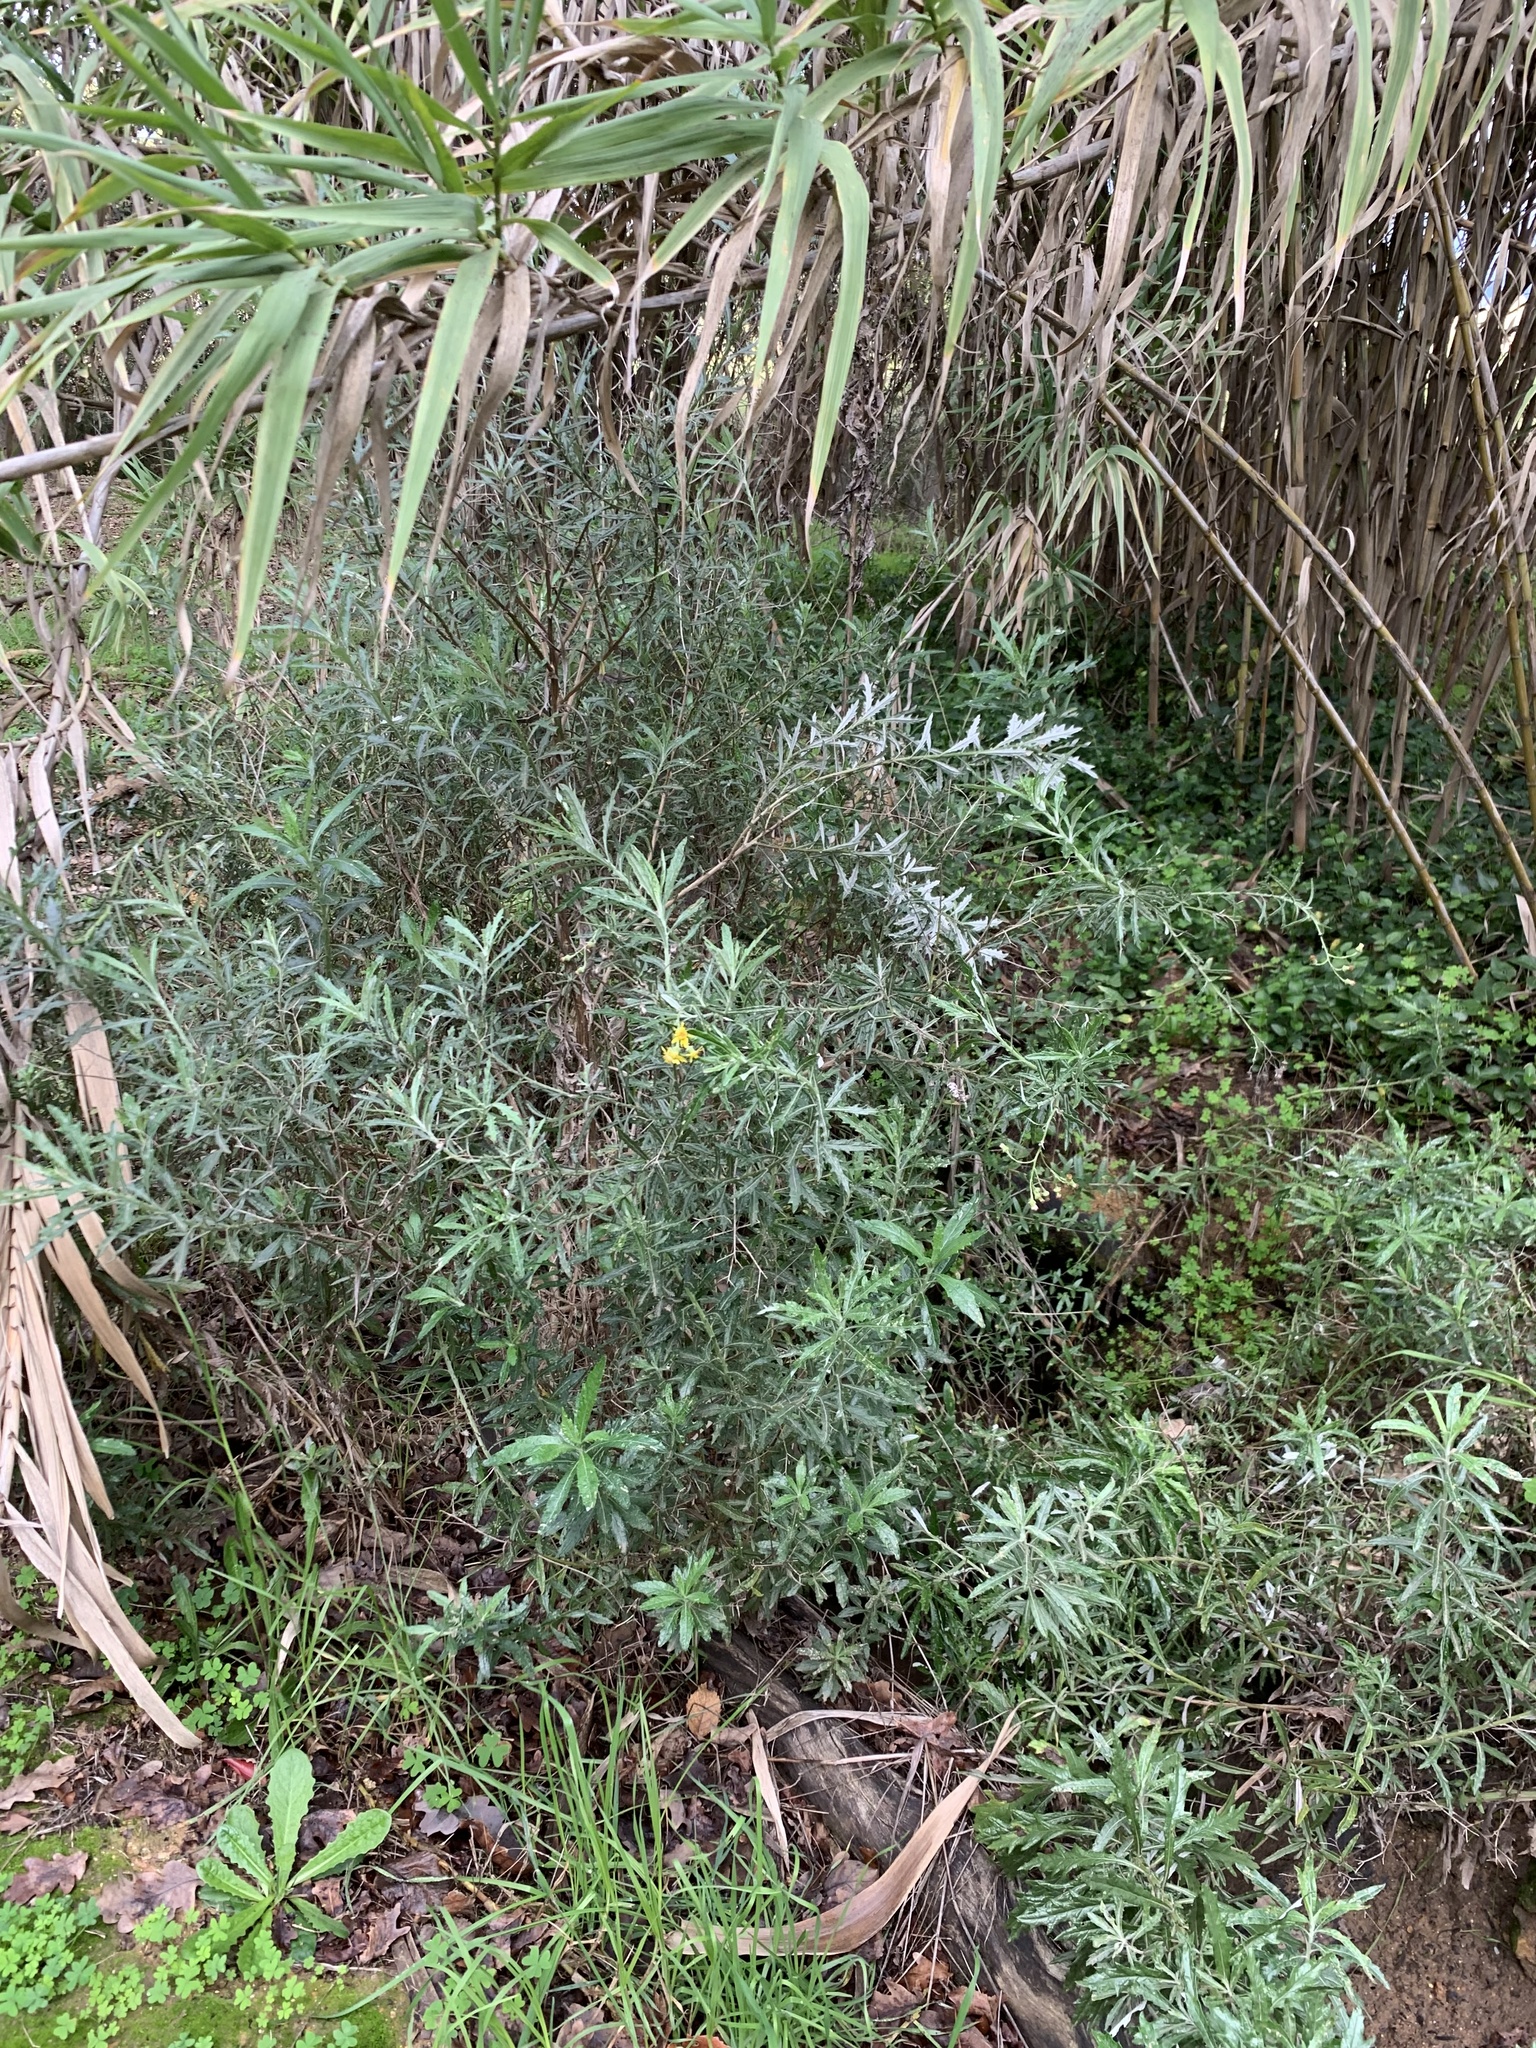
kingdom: Plantae
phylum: Tracheophyta
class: Magnoliopsida
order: Asterales
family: Asteraceae
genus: Senecio
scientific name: Senecio pterophorus
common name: Shoddy ragwort
